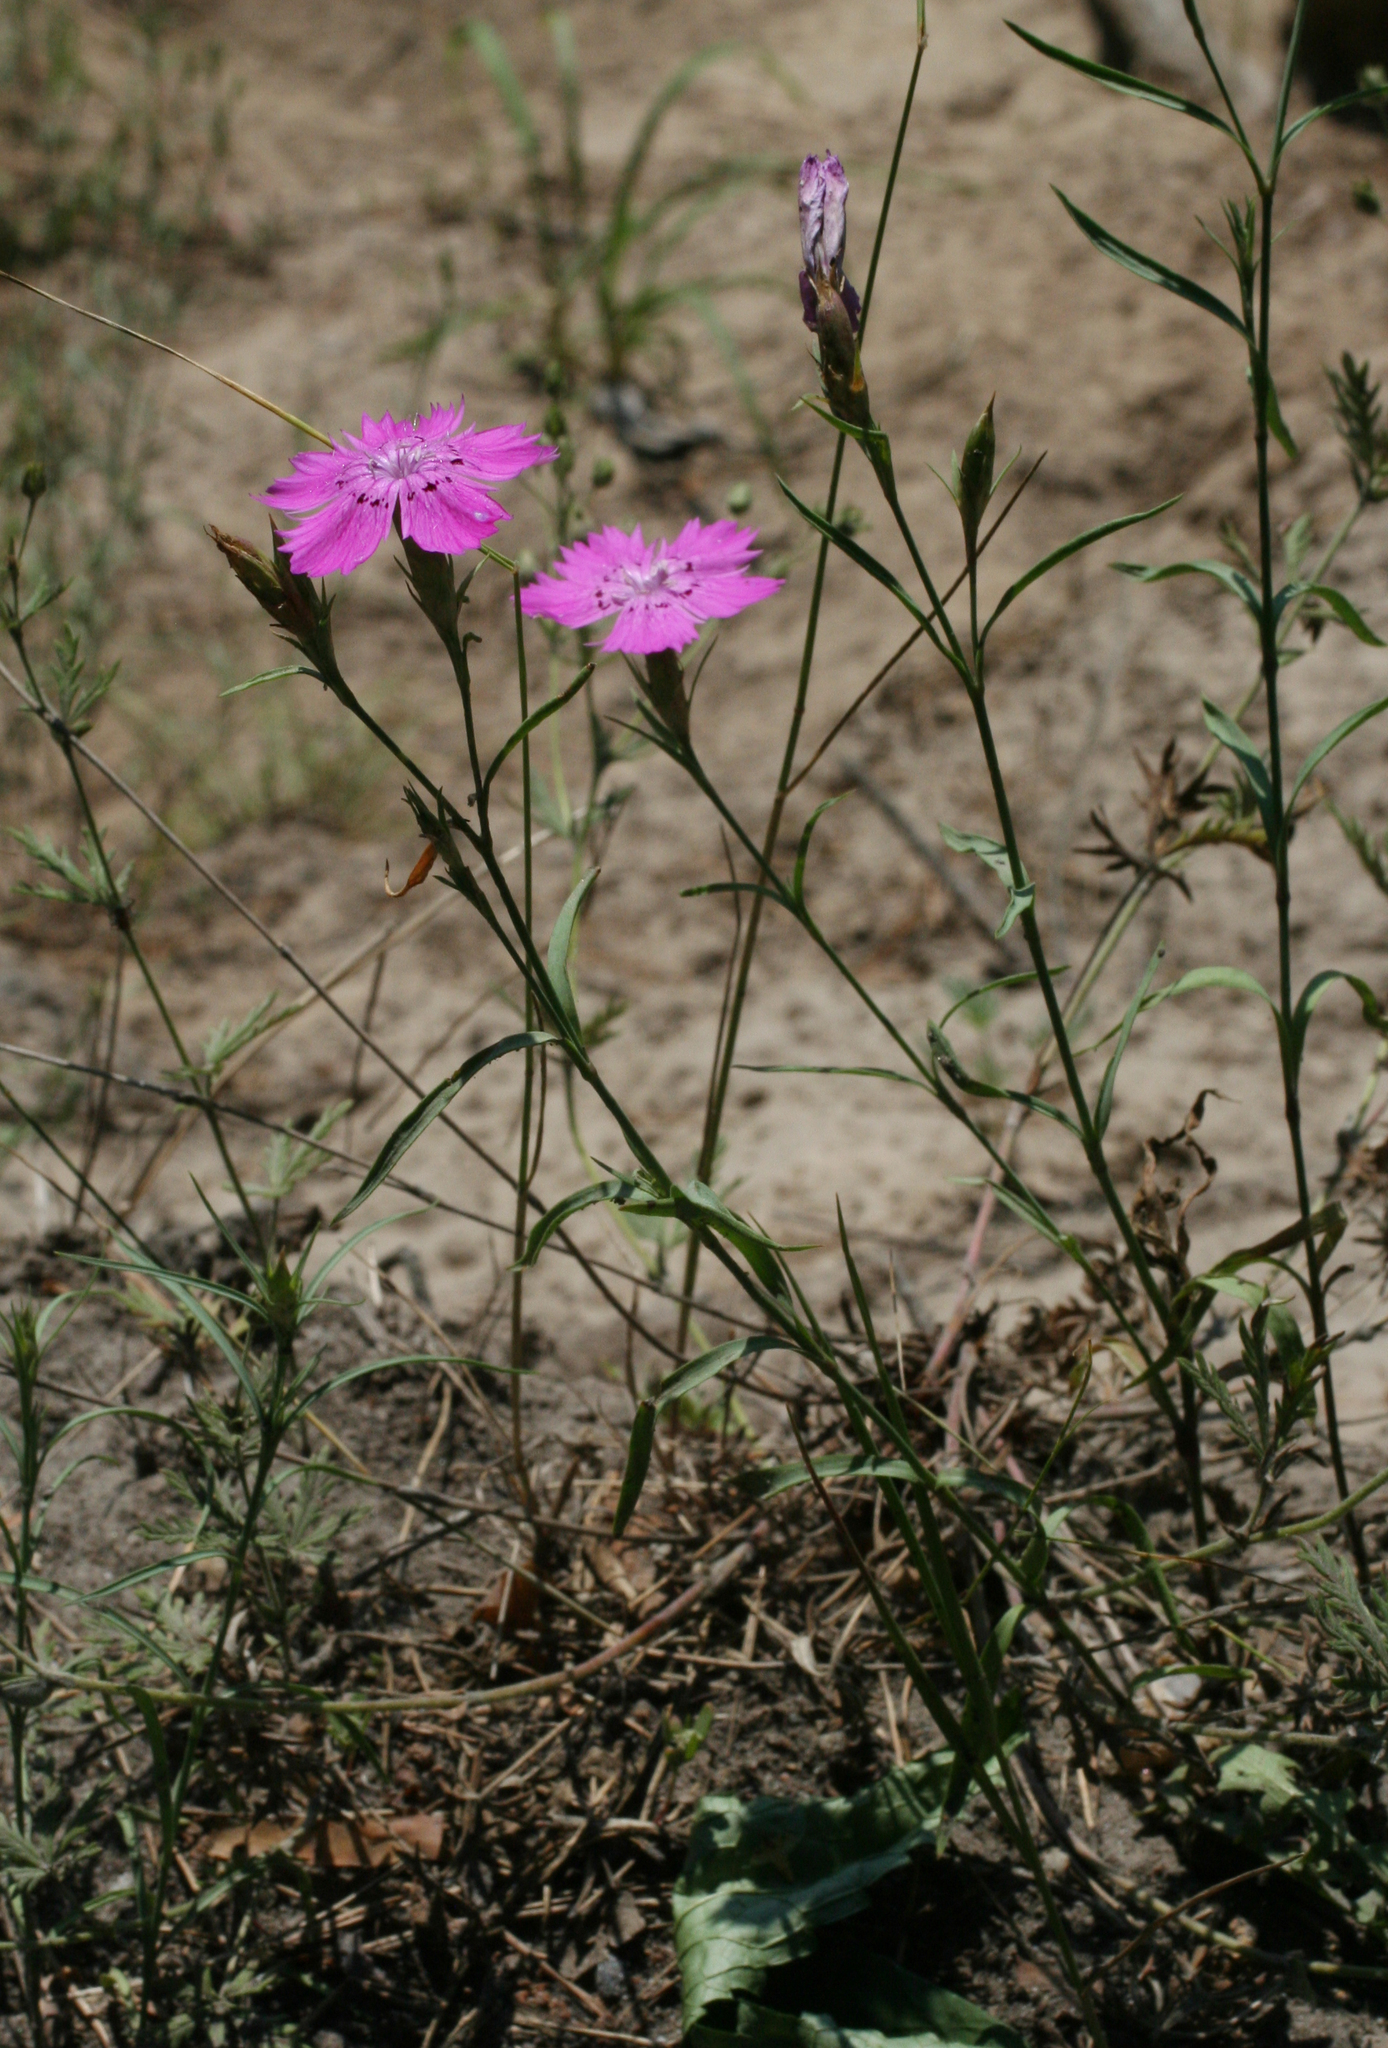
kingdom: Plantae
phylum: Tracheophyta
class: Magnoliopsida
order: Caryophyllales
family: Caryophyllaceae
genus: Dianthus
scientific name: Dianthus chinensis
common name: Rainbow pink
